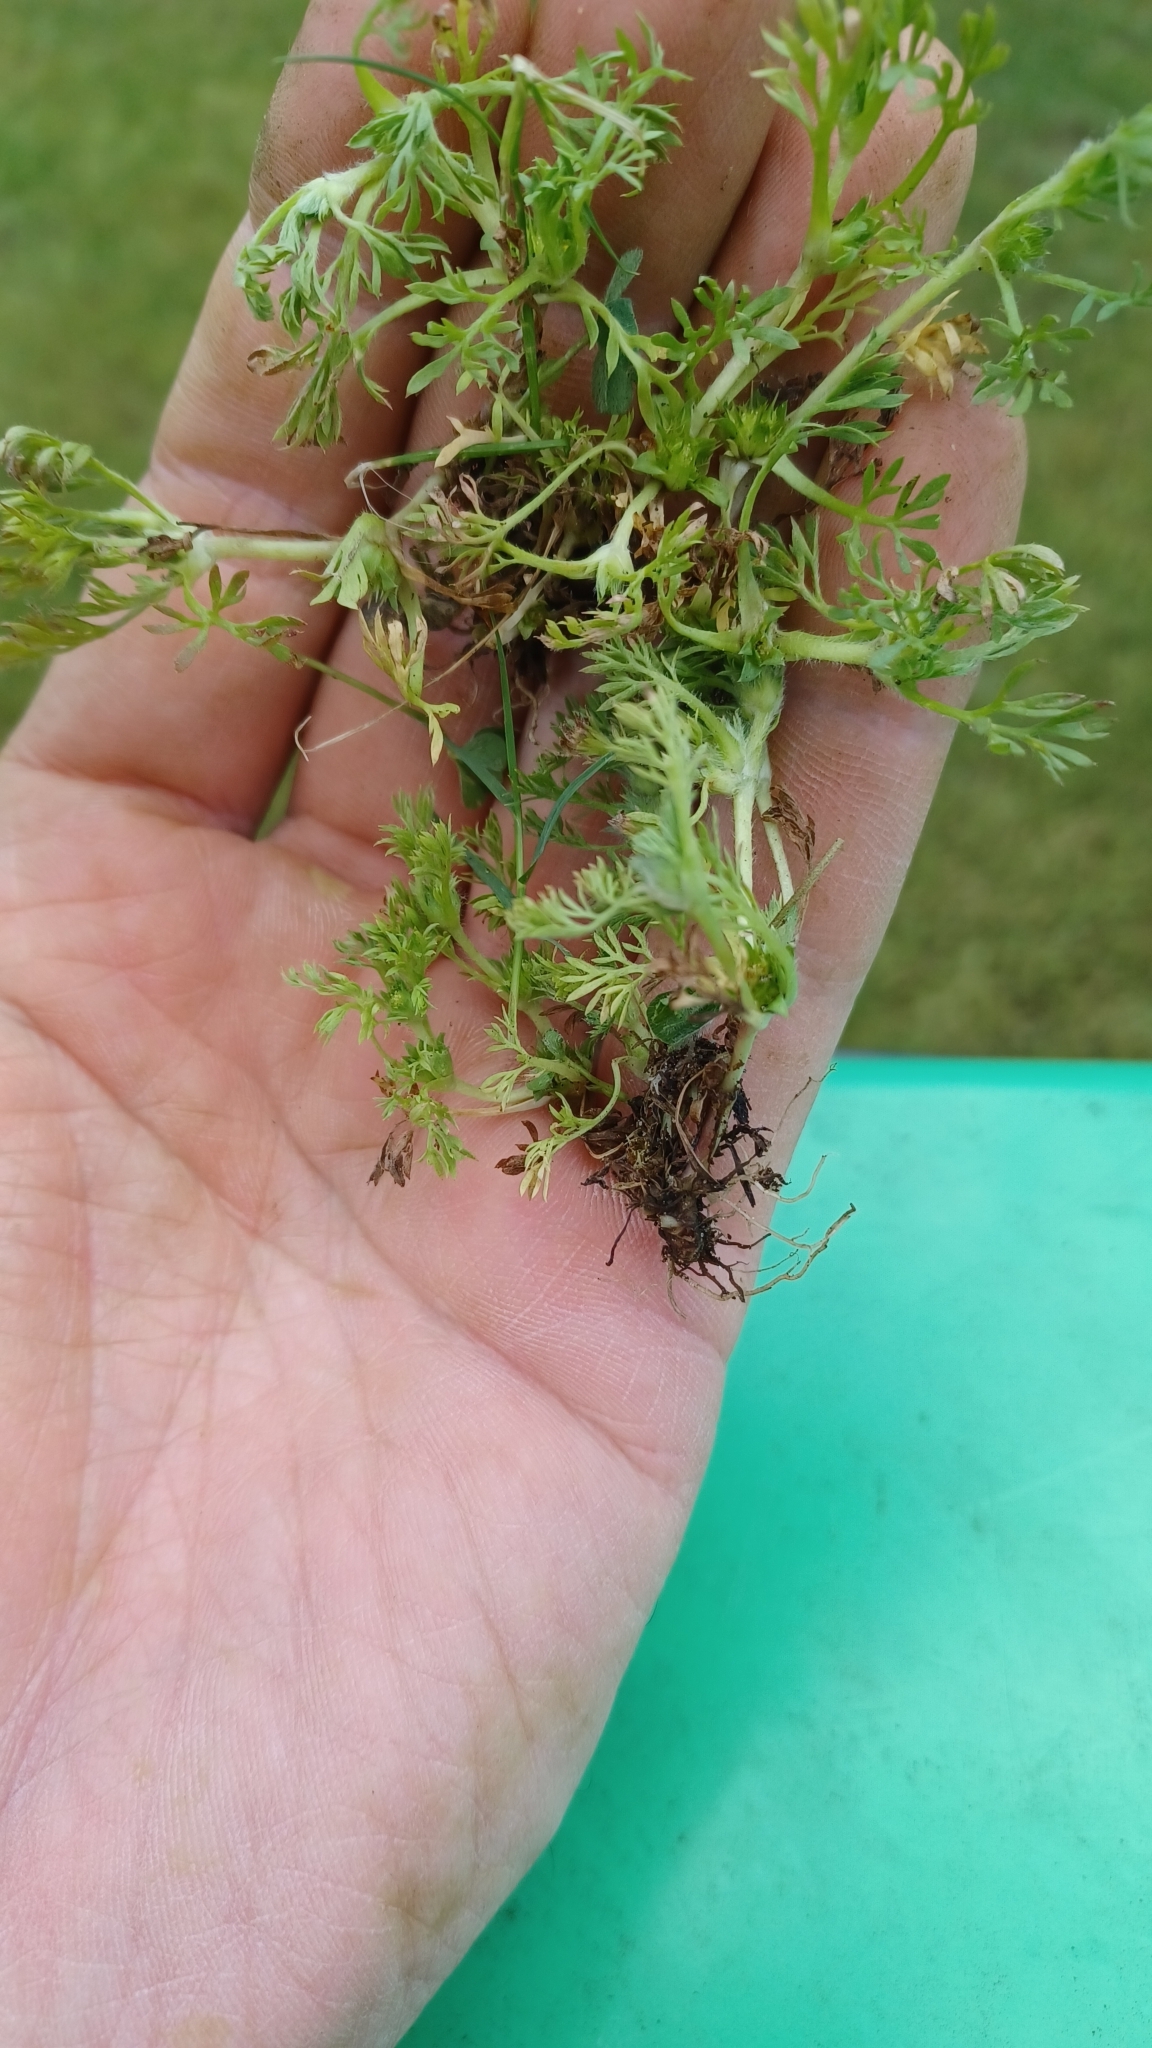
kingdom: Plantae
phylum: Tracheophyta
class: Magnoliopsida
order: Asterales
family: Asteraceae
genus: Soliva
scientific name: Soliva sessilis
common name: Field burrweed
